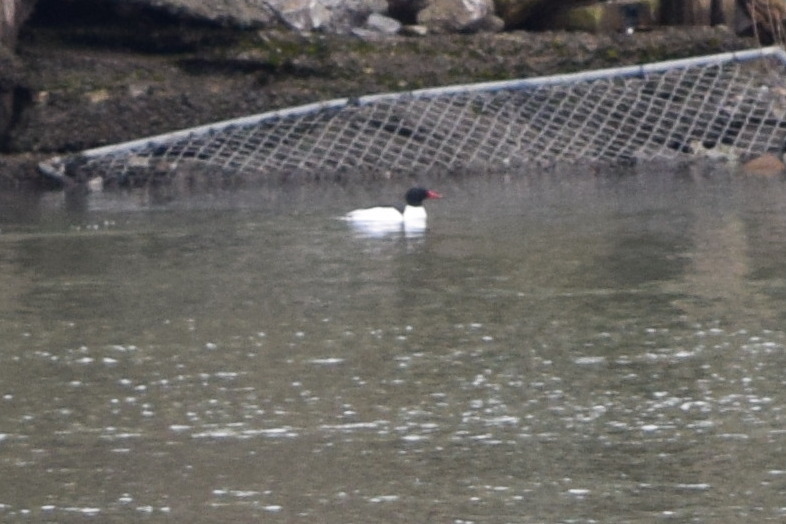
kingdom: Animalia
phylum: Chordata
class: Aves
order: Anseriformes
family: Anatidae
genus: Mergus
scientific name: Mergus merganser
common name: Common merganser
